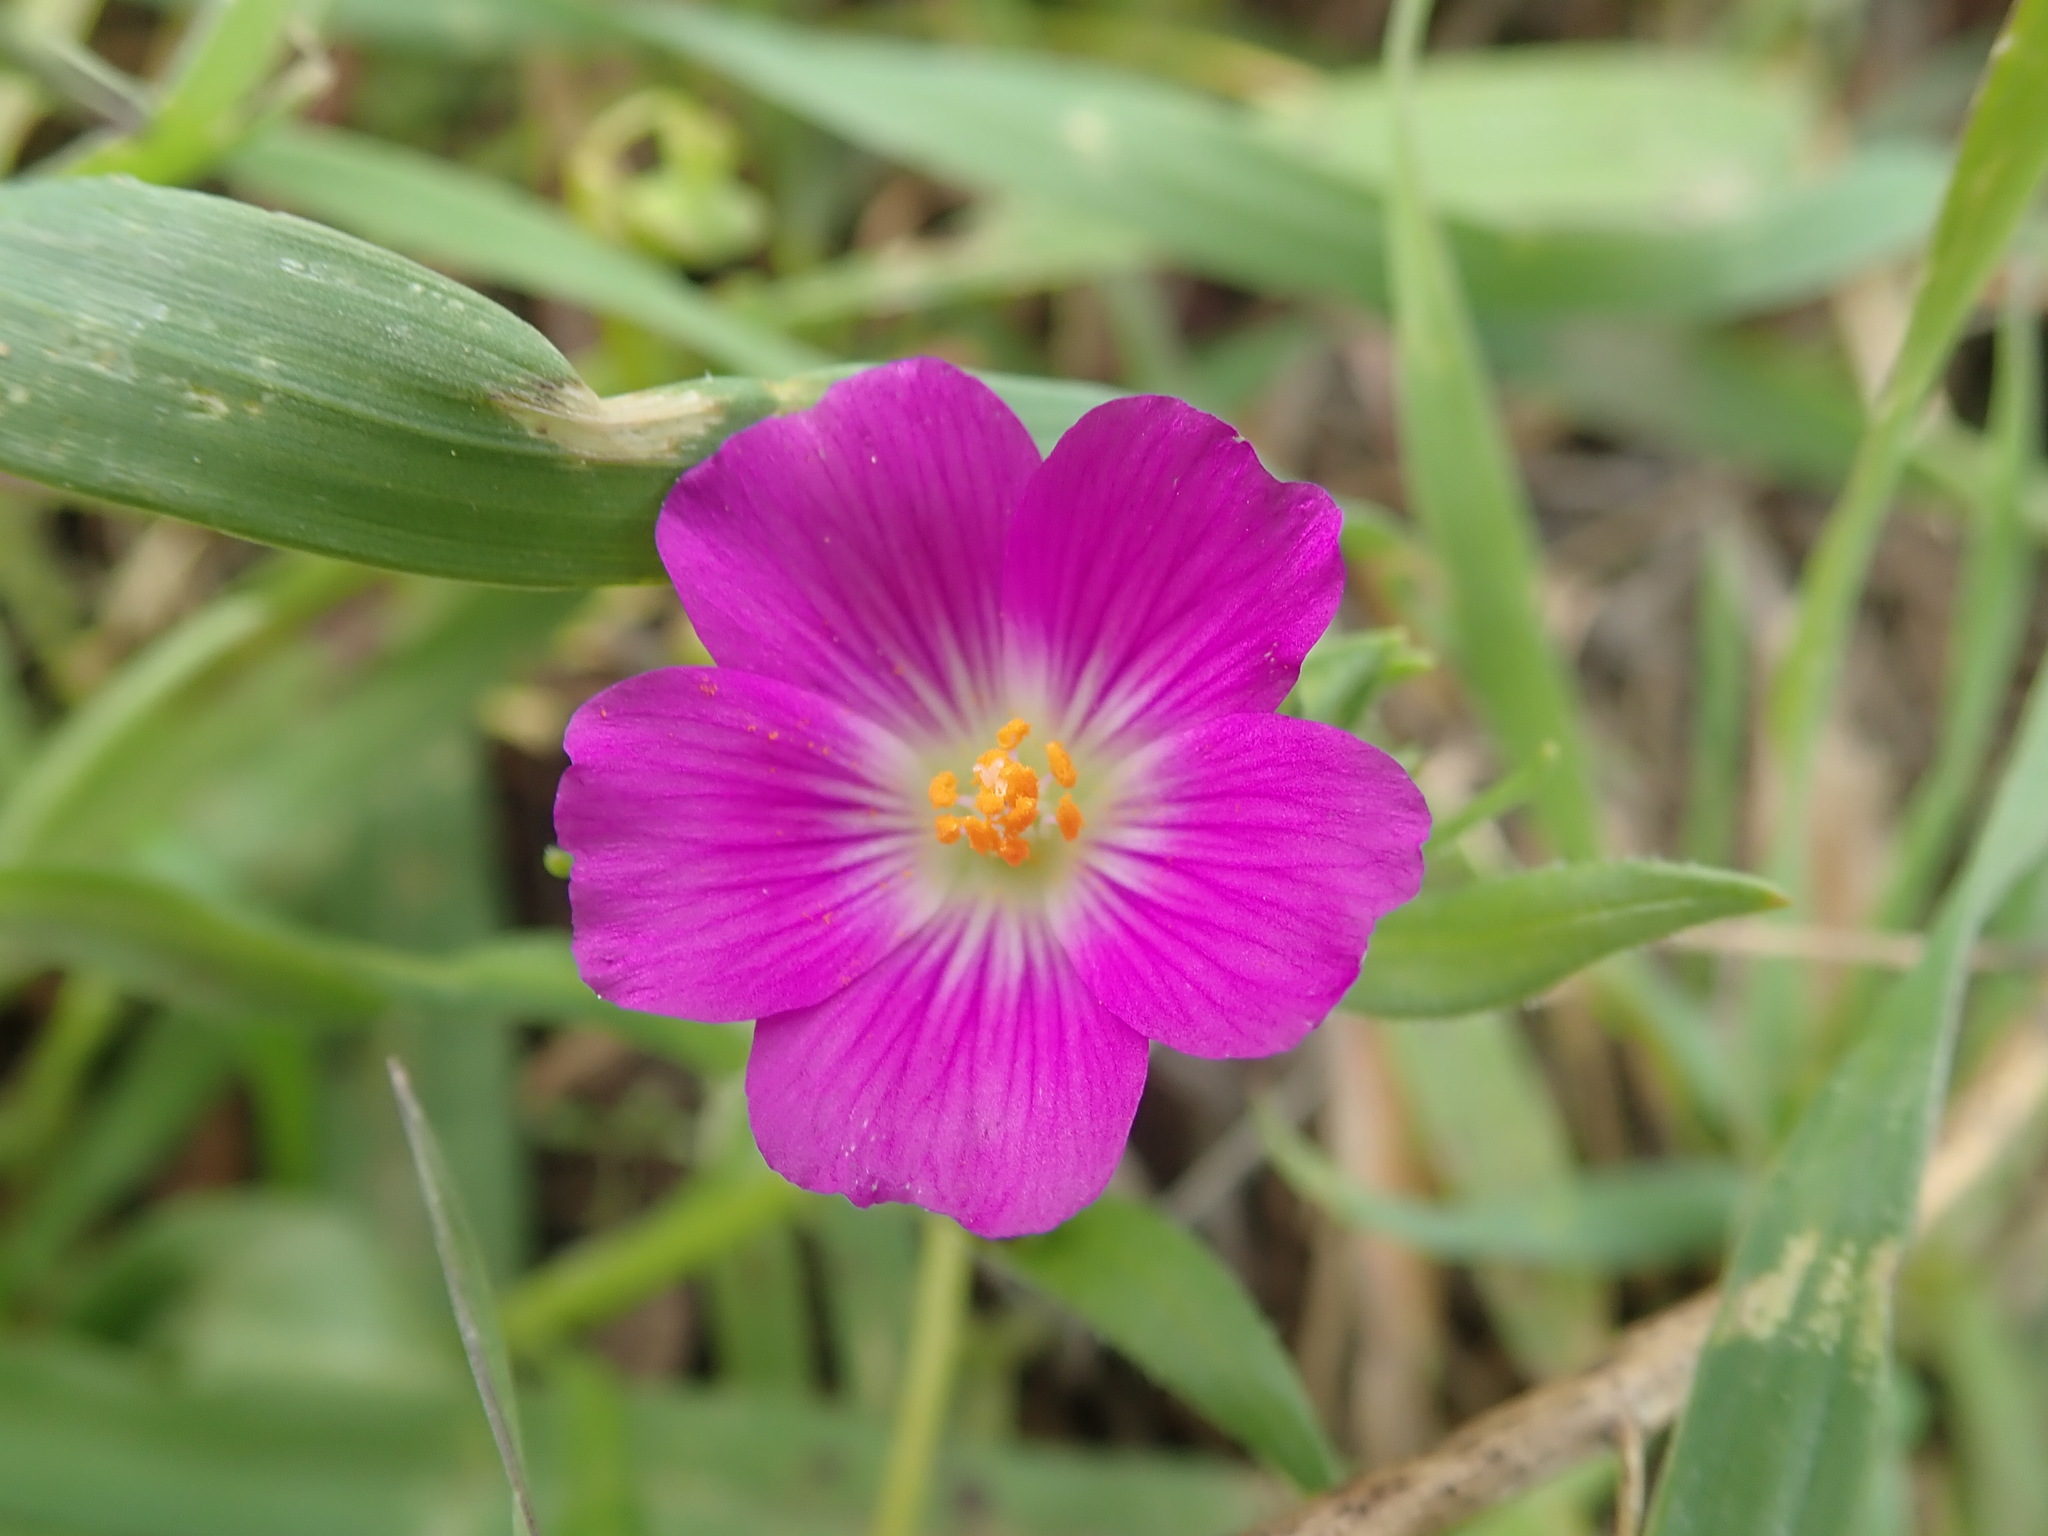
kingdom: Plantae
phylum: Tracheophyta
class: Magnoliopsida
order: Caryophyllales
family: Montiaceae
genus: Calandrinia
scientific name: Calandrinia menziesii
